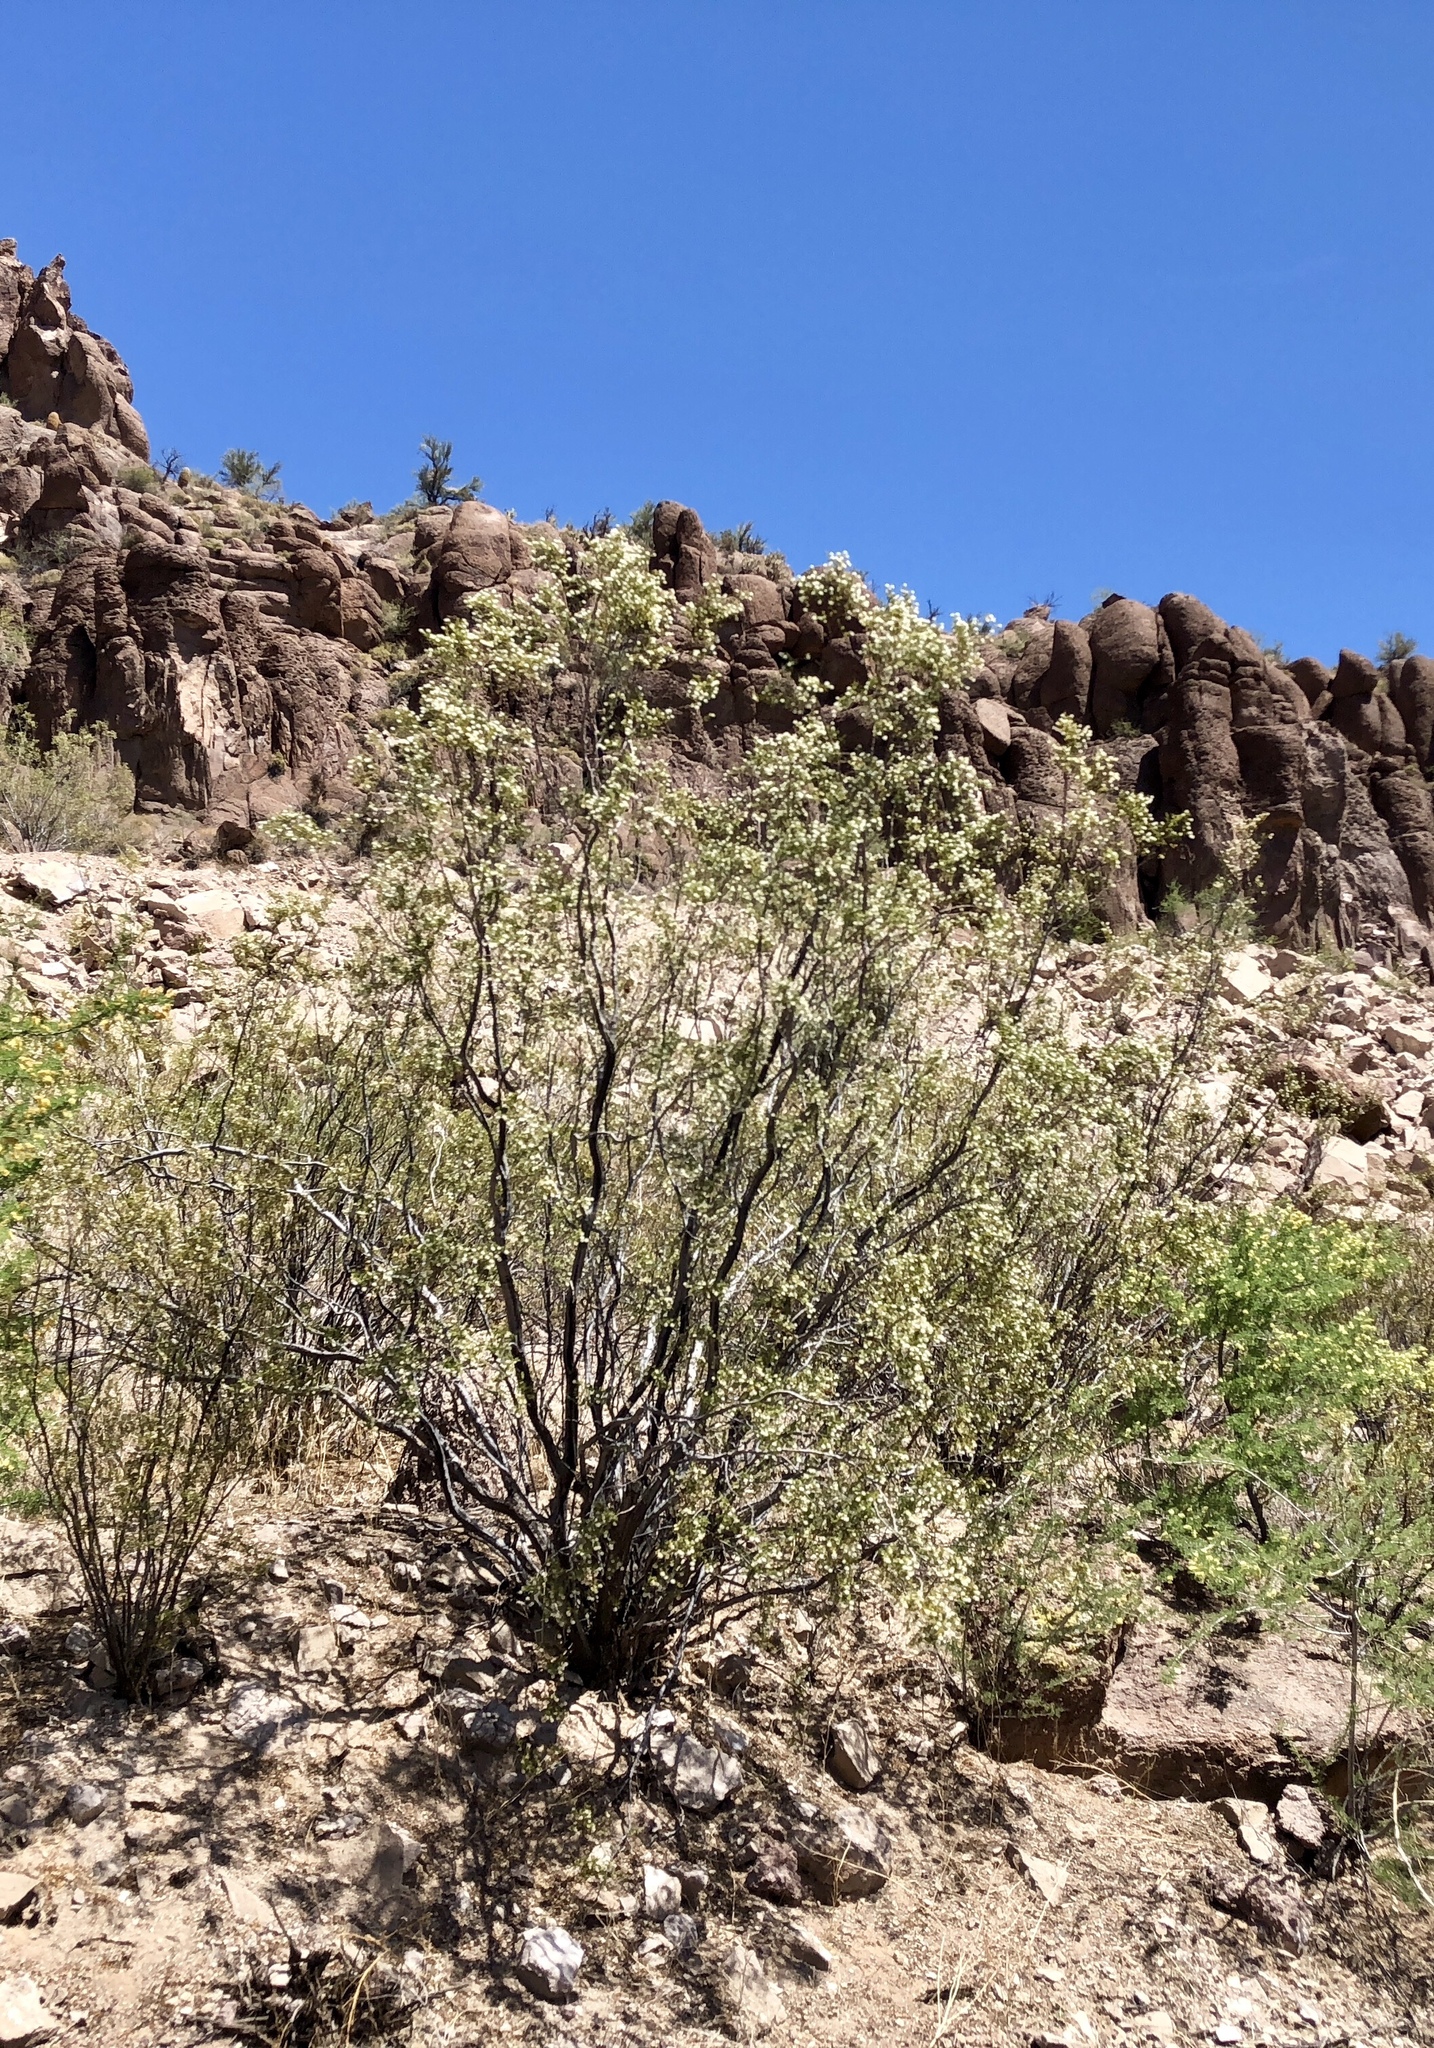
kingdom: Plantae
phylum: Tracheophyta
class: Magnoliopsida
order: Zygophyllales
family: Zygophyllaceae
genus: Larrea
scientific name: Larrea tridentata
